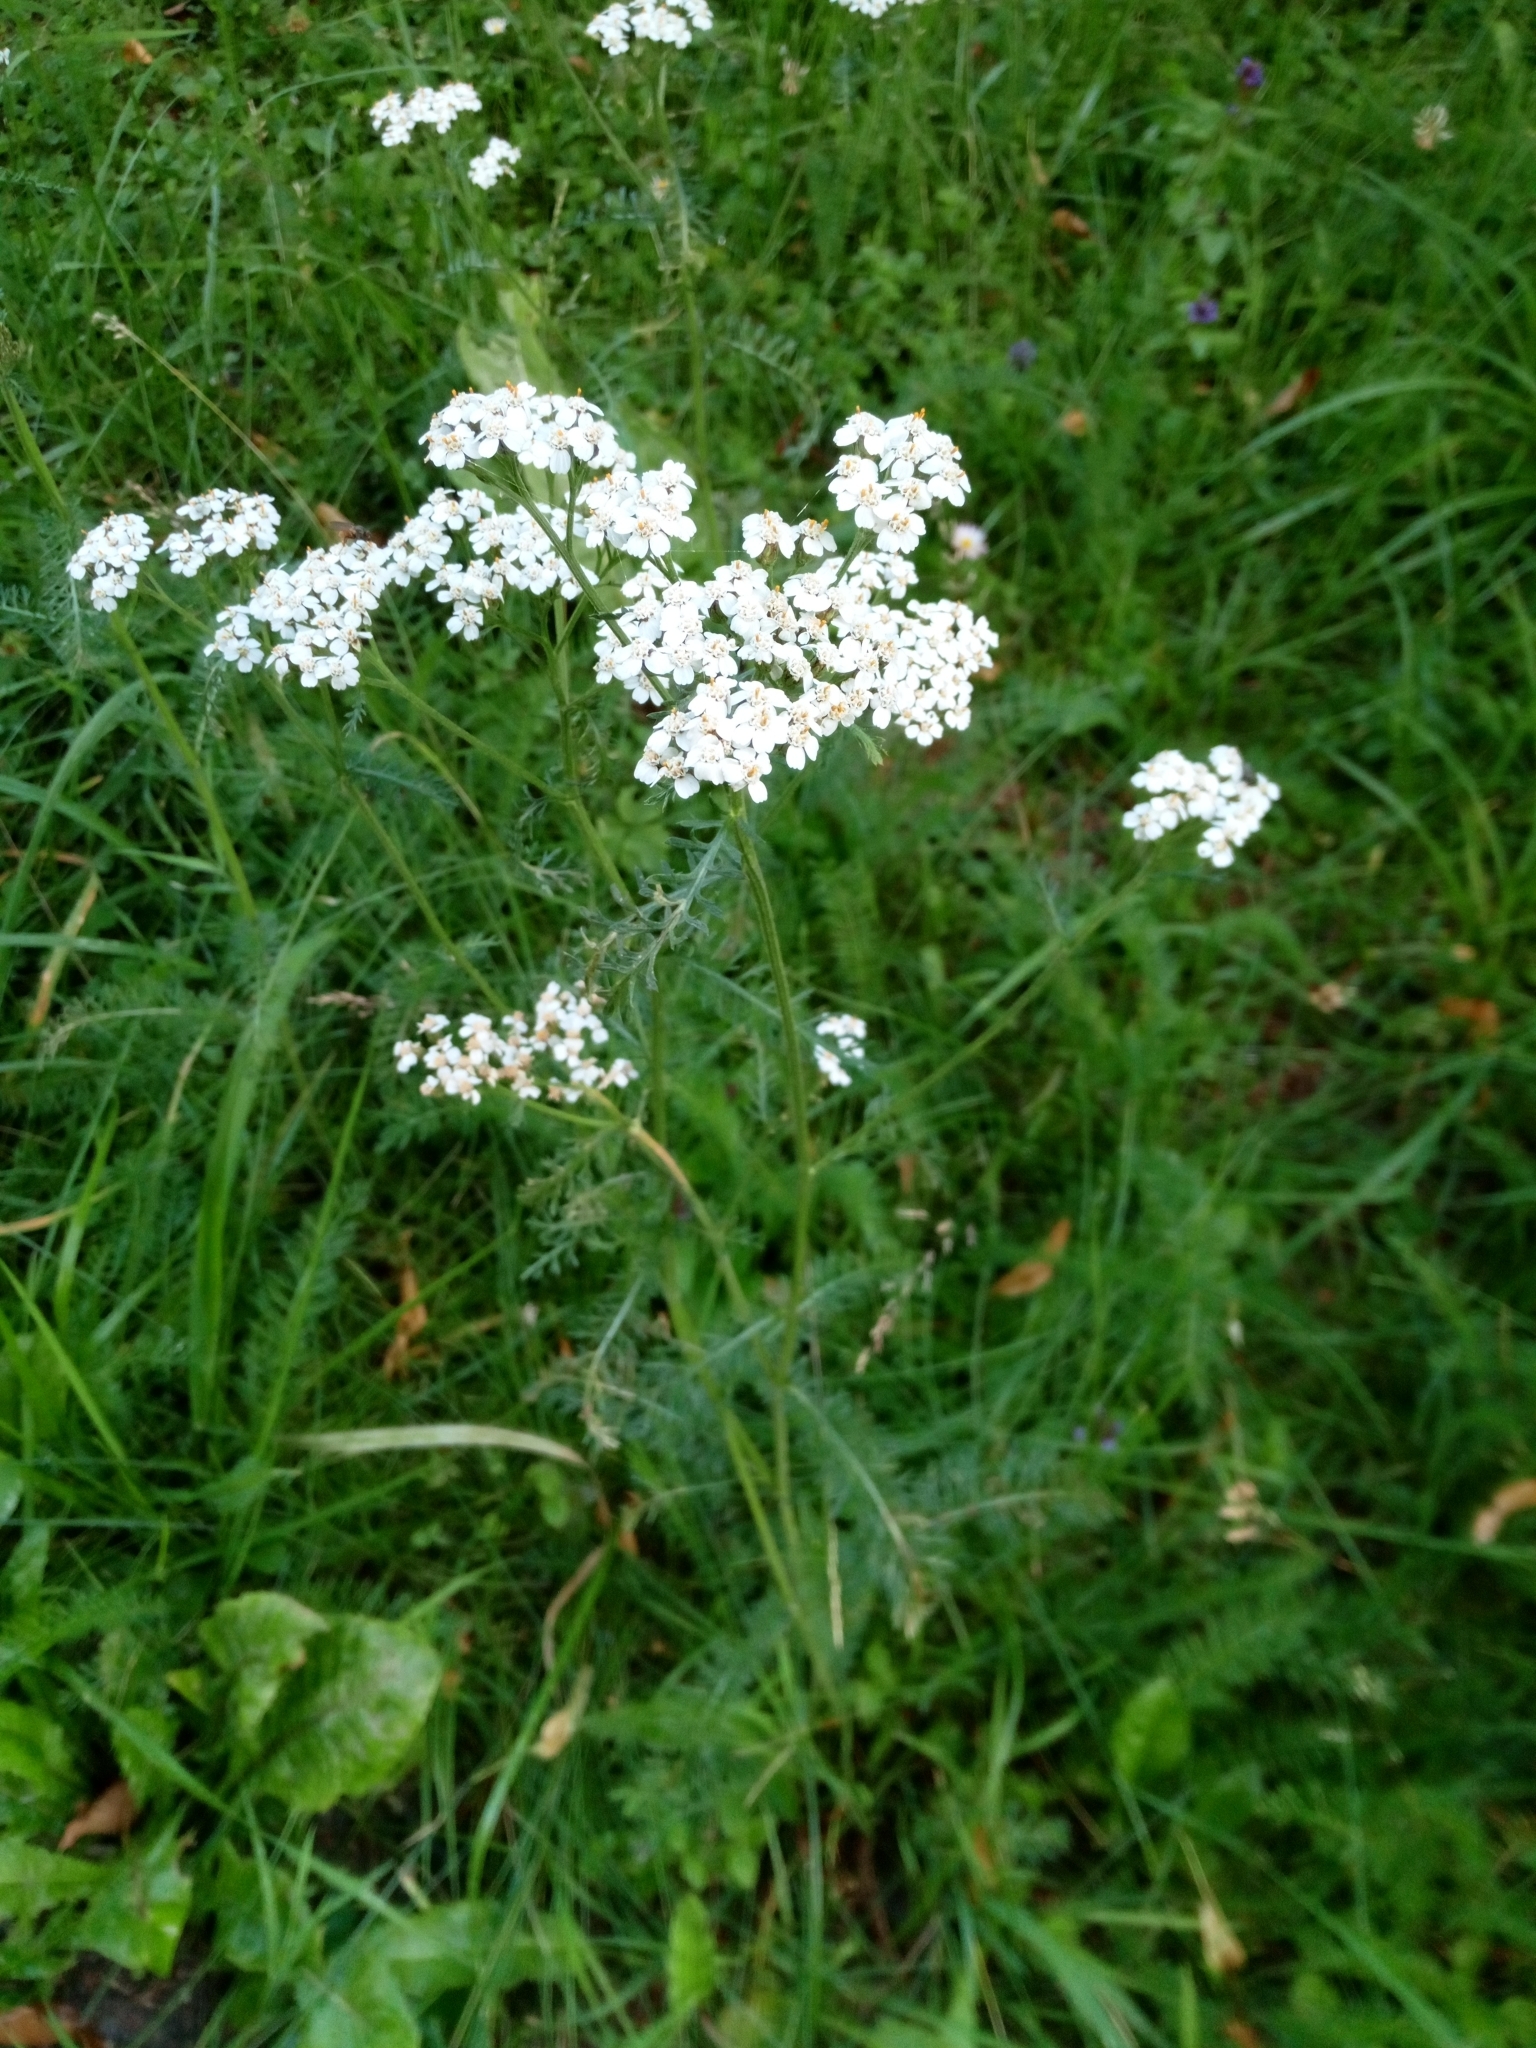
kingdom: Plantae
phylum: Tracheophyta
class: Magnoliopsida
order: Asterales
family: Asteraceae
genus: Achillea
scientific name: Achillea millefolium
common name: Yarrow
